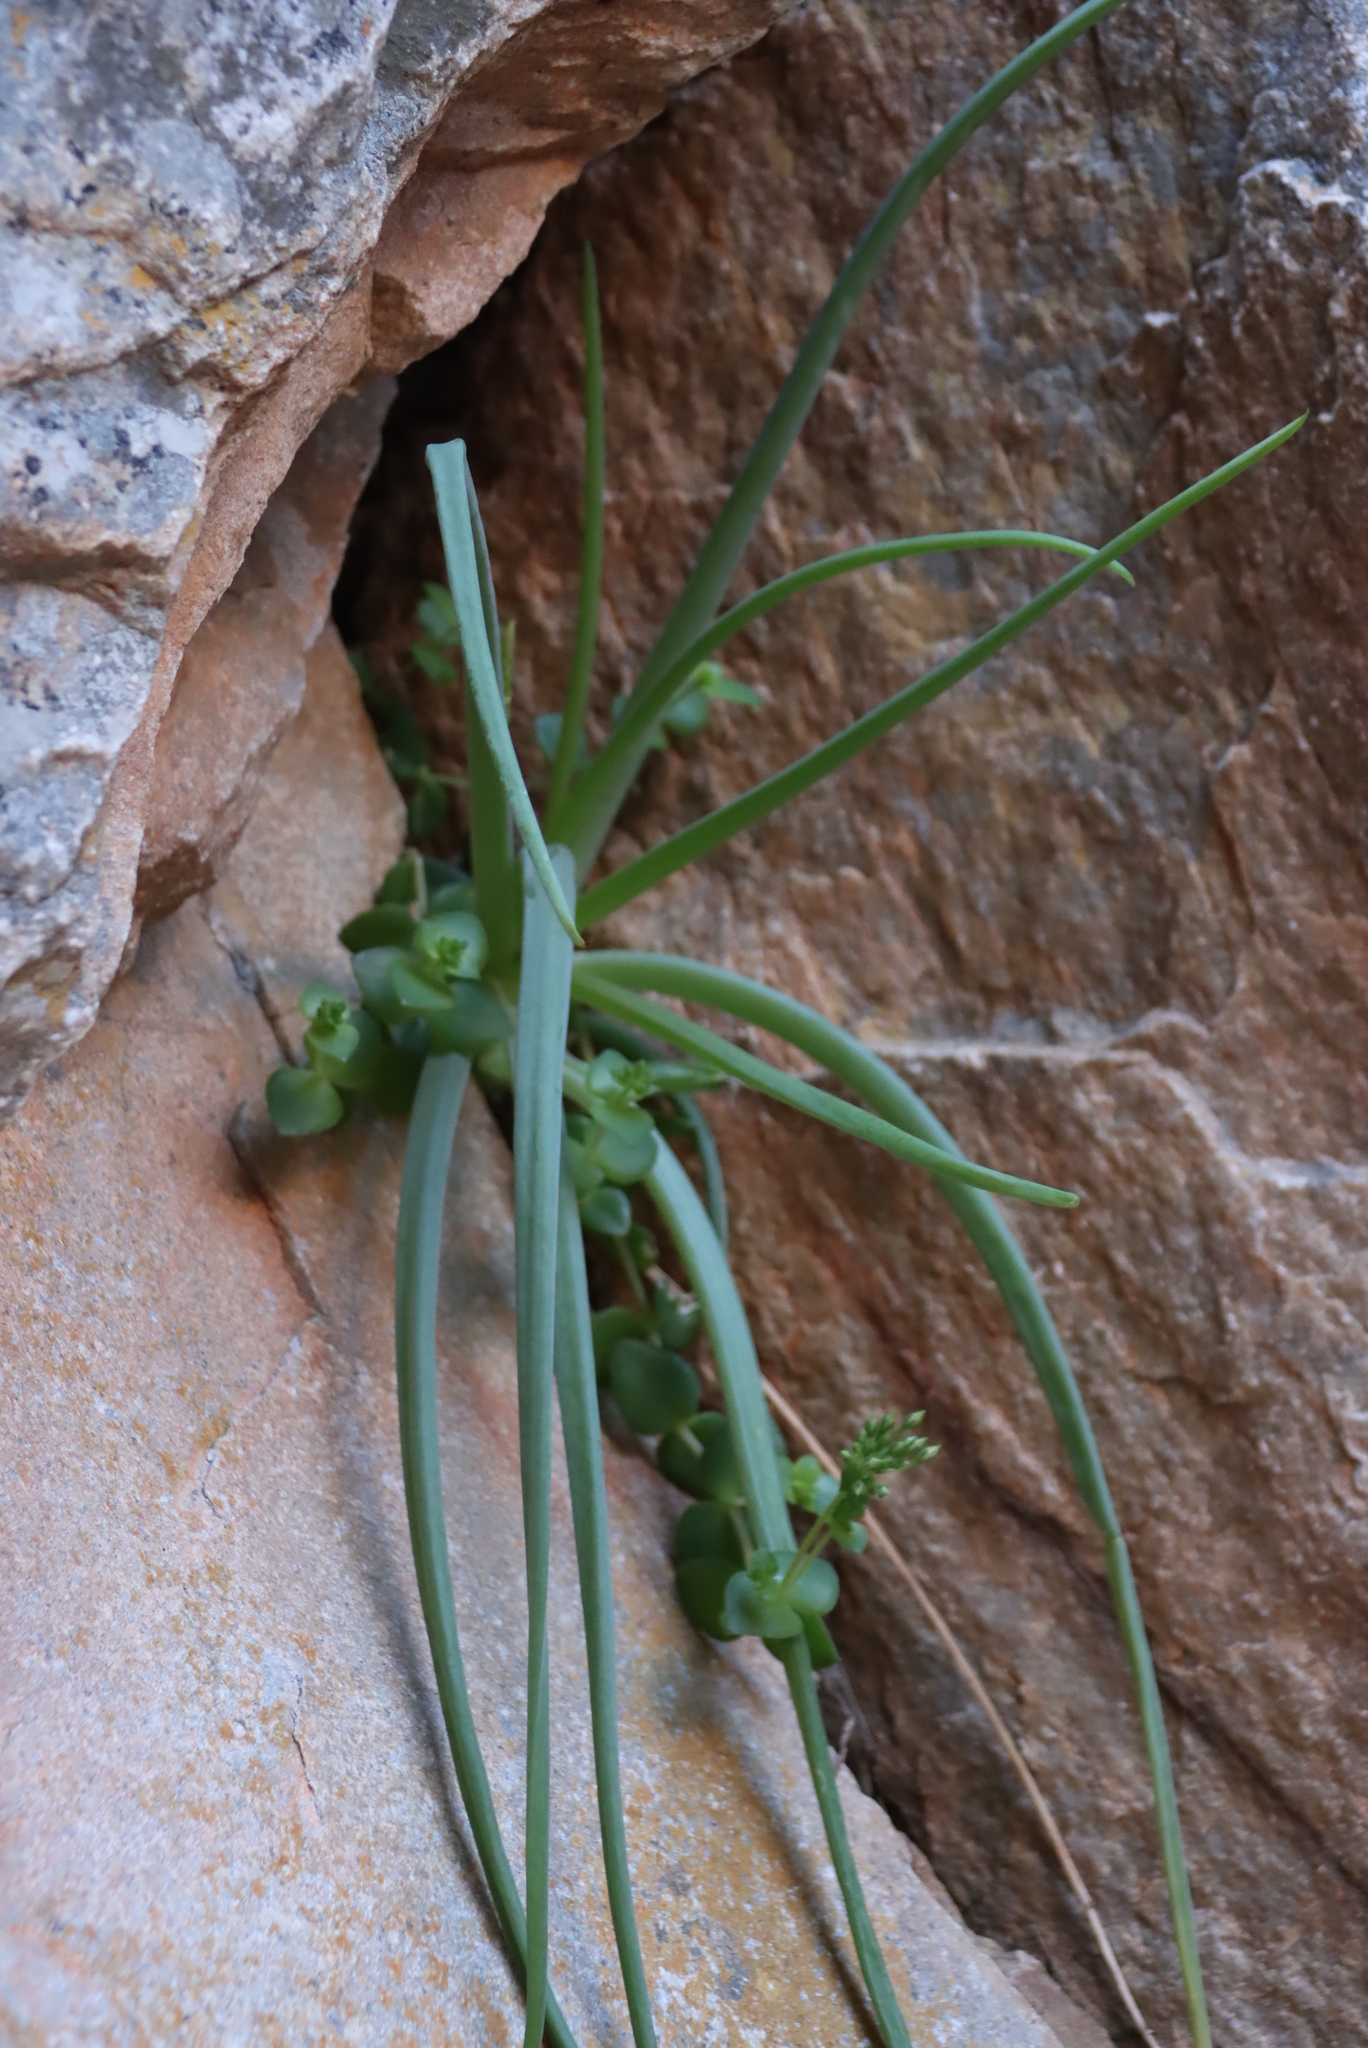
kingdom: Plantae
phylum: Tracheophyta
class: Magnoliopsida
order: Saxifragales
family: Crassulaceae
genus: Crassula
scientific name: Crassula pellucida
